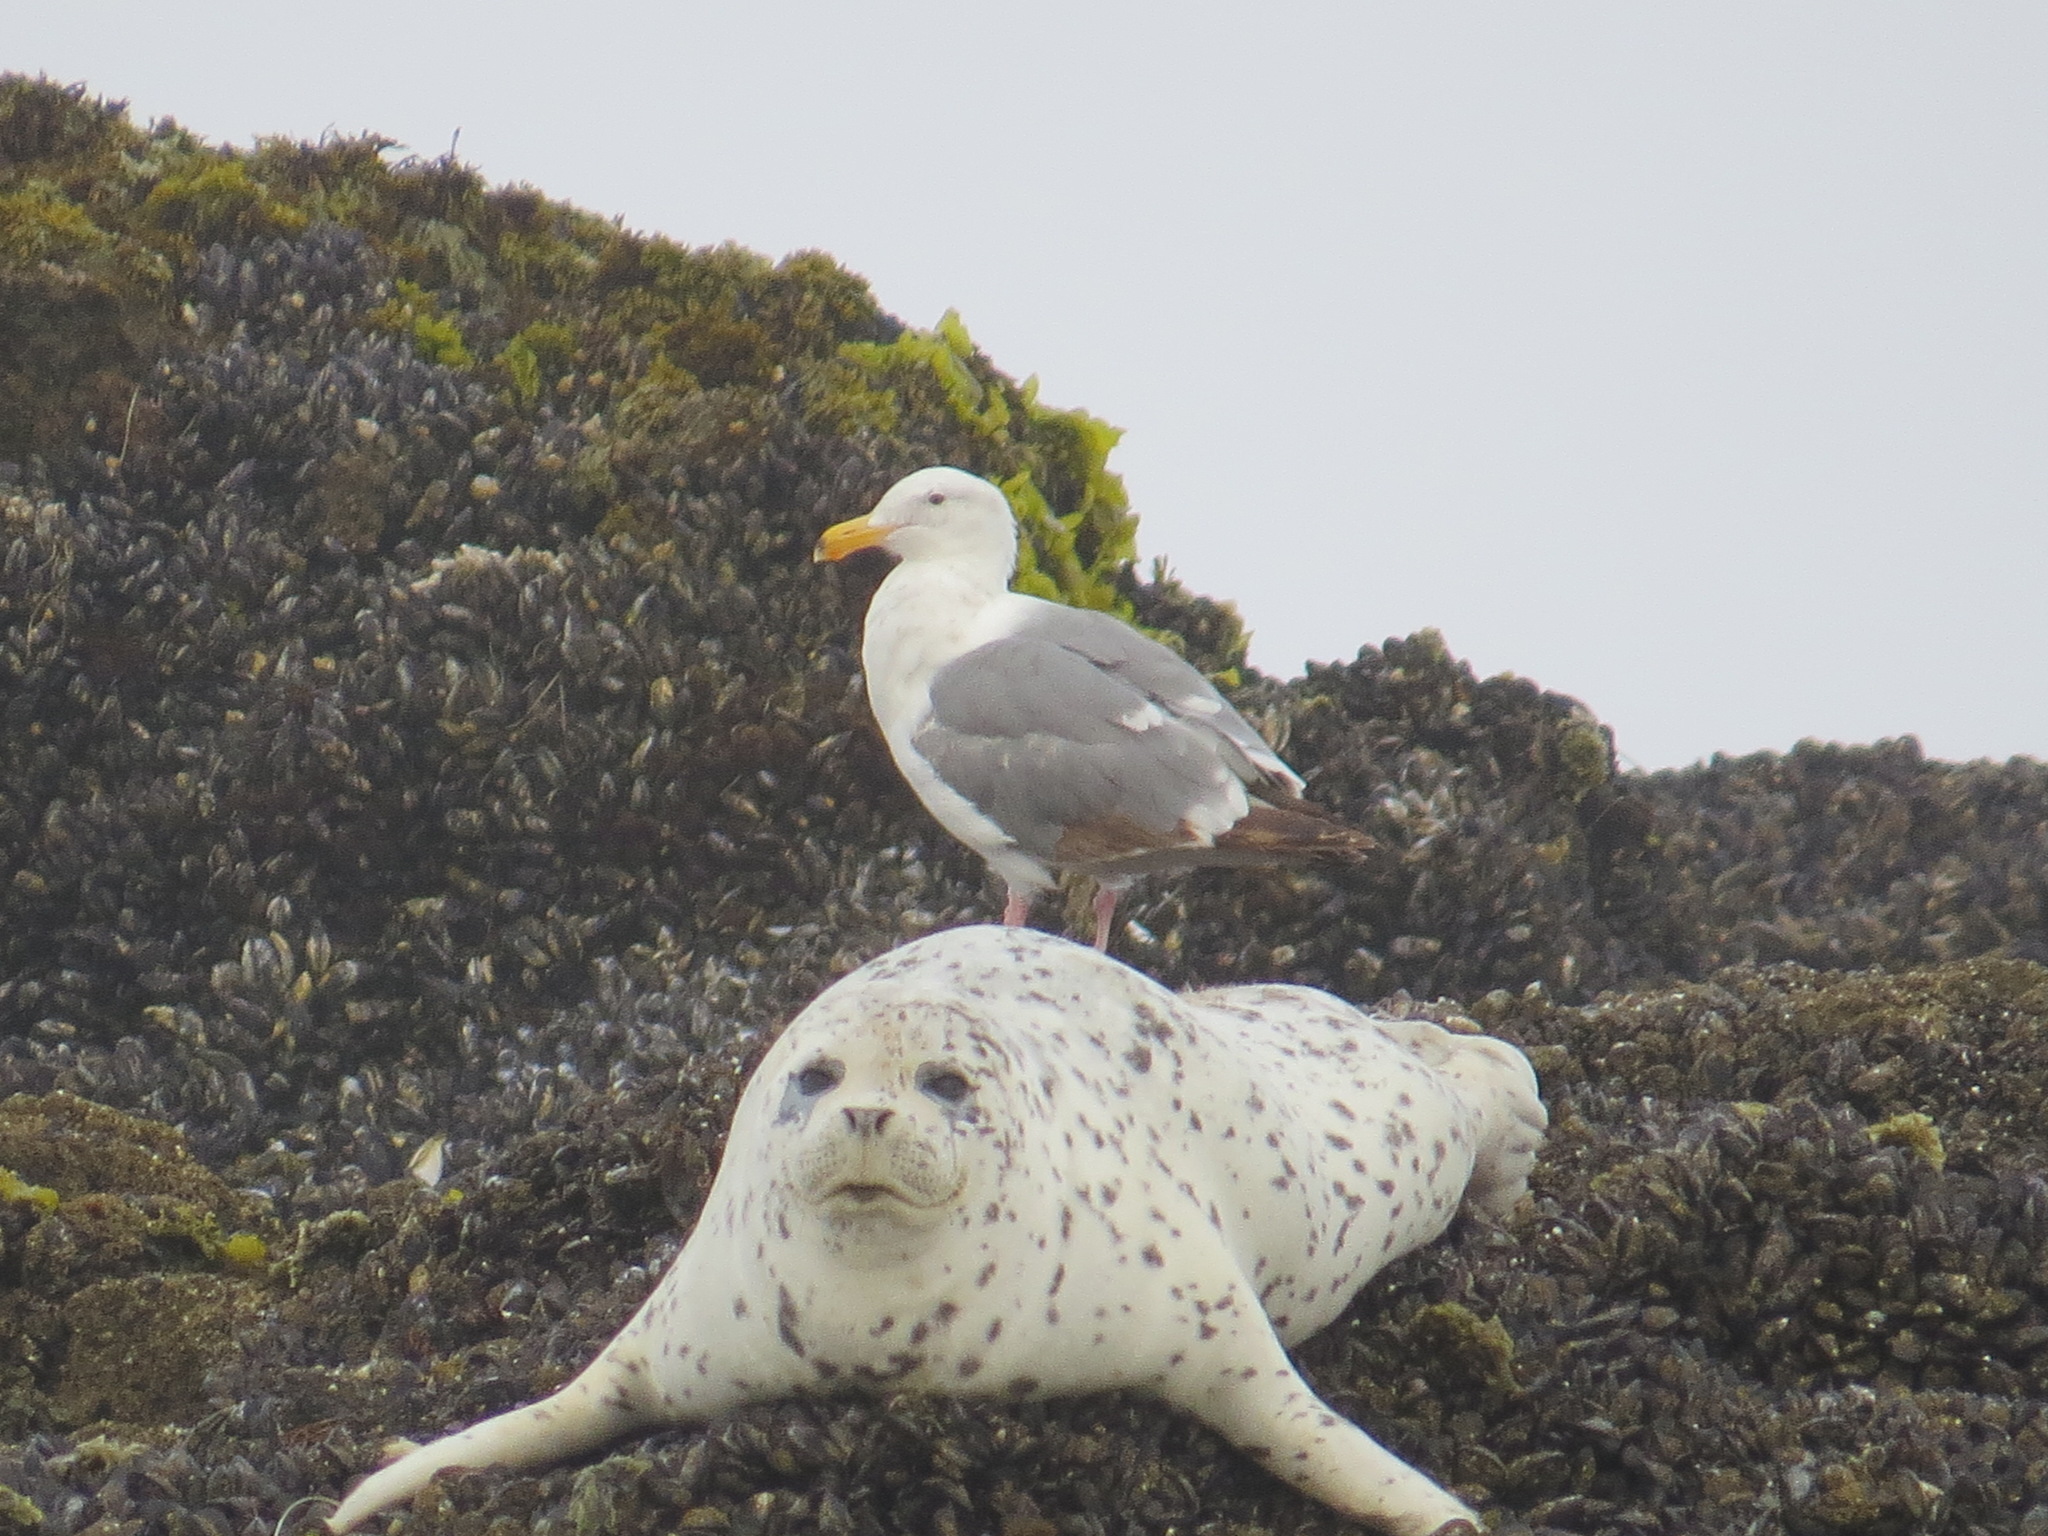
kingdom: Animalia
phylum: Chordata
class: Mammalia
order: Carnivora
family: Phocidae
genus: Phoca
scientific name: Phoca vitulina
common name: Harbor seal
